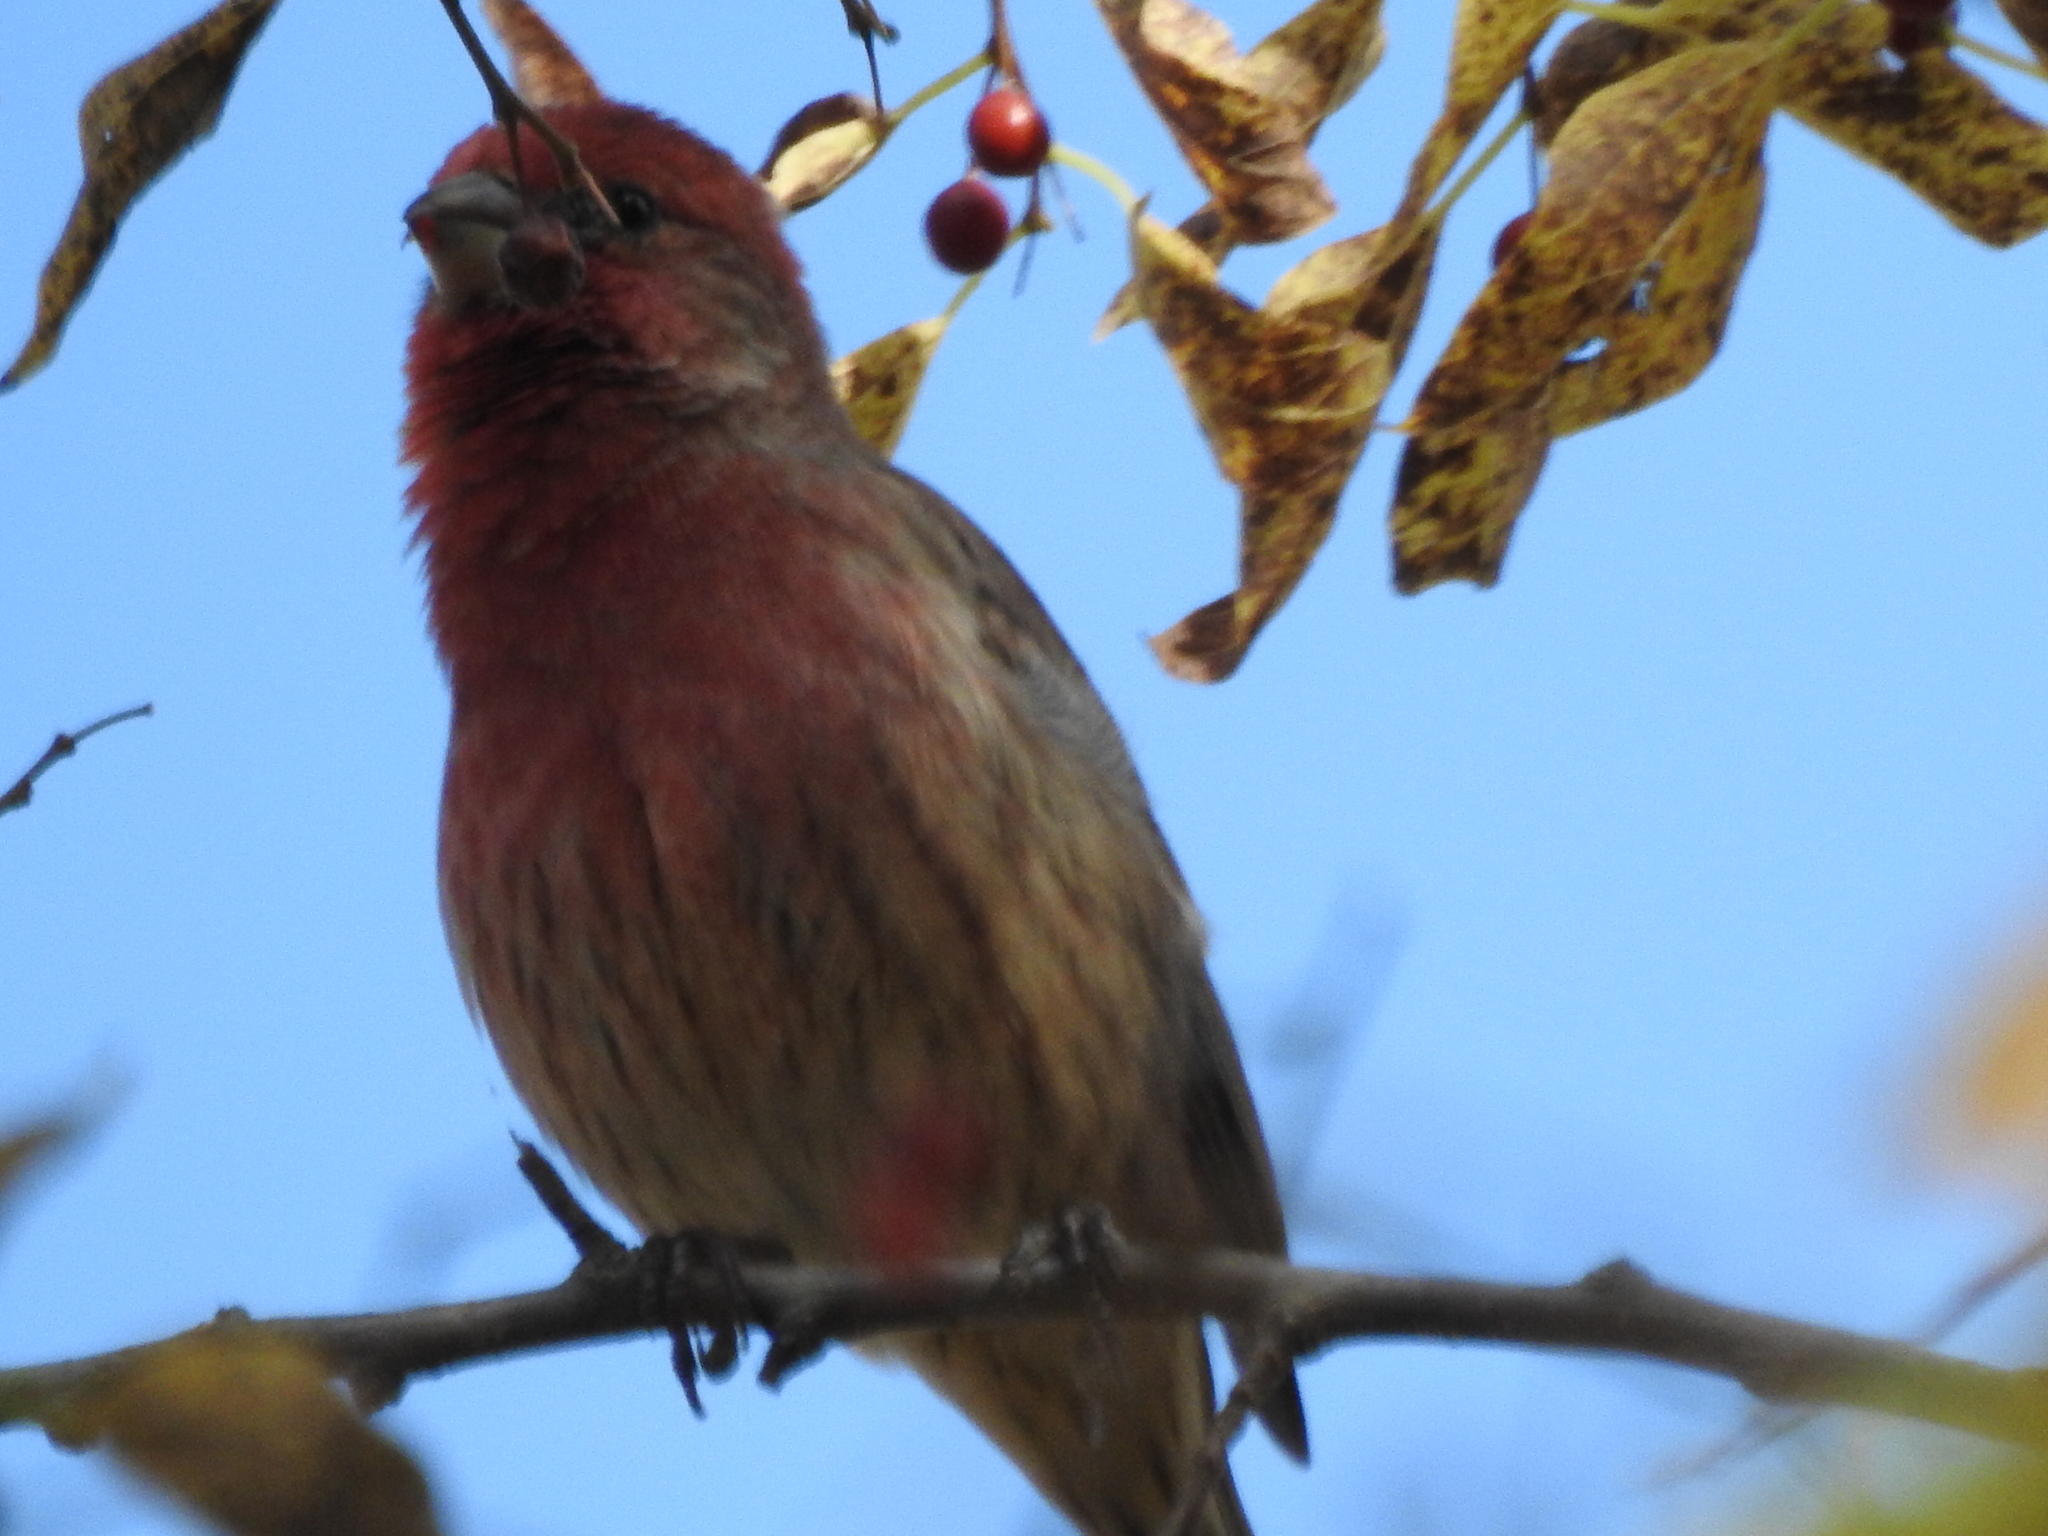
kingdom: Animalia
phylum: Chordata
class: Aves
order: Passeriformes
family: Fringillidae
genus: Haemorhous
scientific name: Haemorhous mexicanus
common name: House finch
